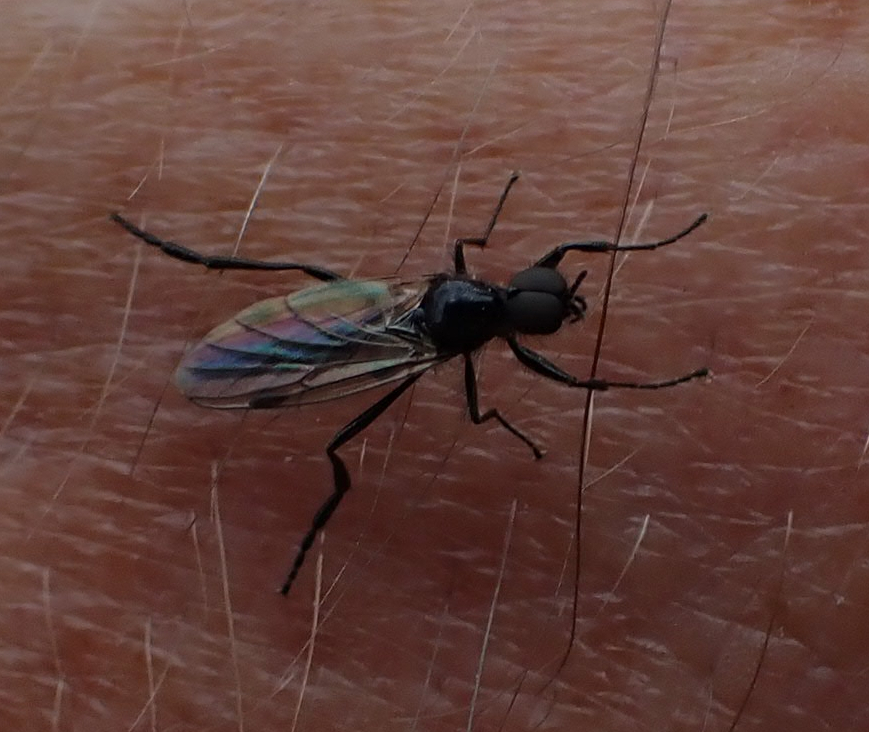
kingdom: Animalia
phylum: Arthropoda
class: Insecta
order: Diptera
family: Bibionidae
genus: Bibio
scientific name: Bibio slossonae
